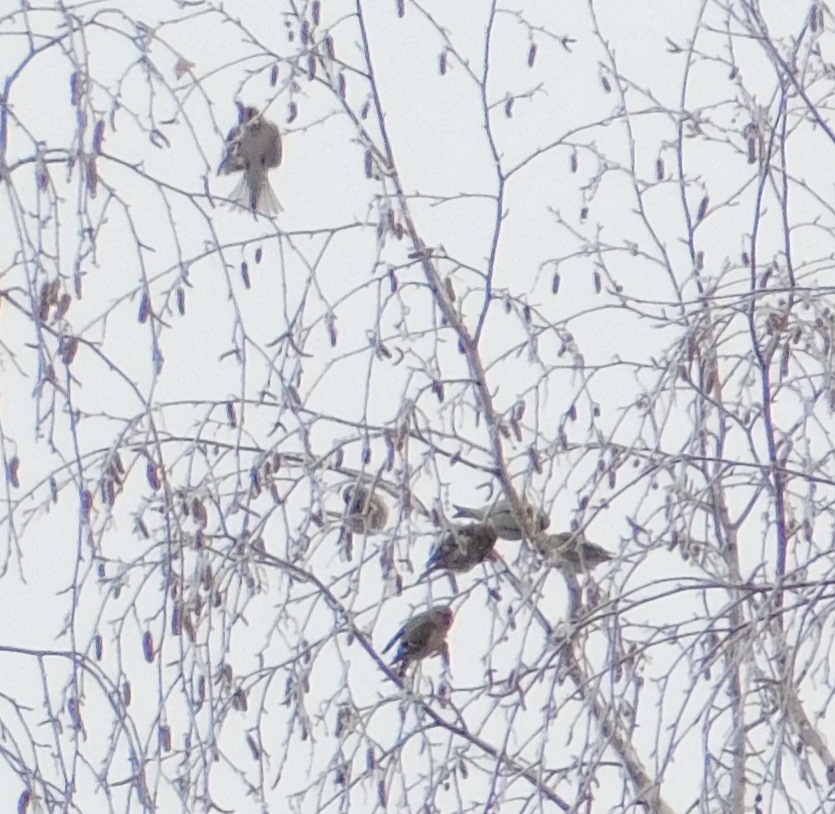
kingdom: Animalia
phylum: Chordata
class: Aves
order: Passeriformes
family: Fringillidae
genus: Acanthis
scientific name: Acanthis flammea
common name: Common redpoll
